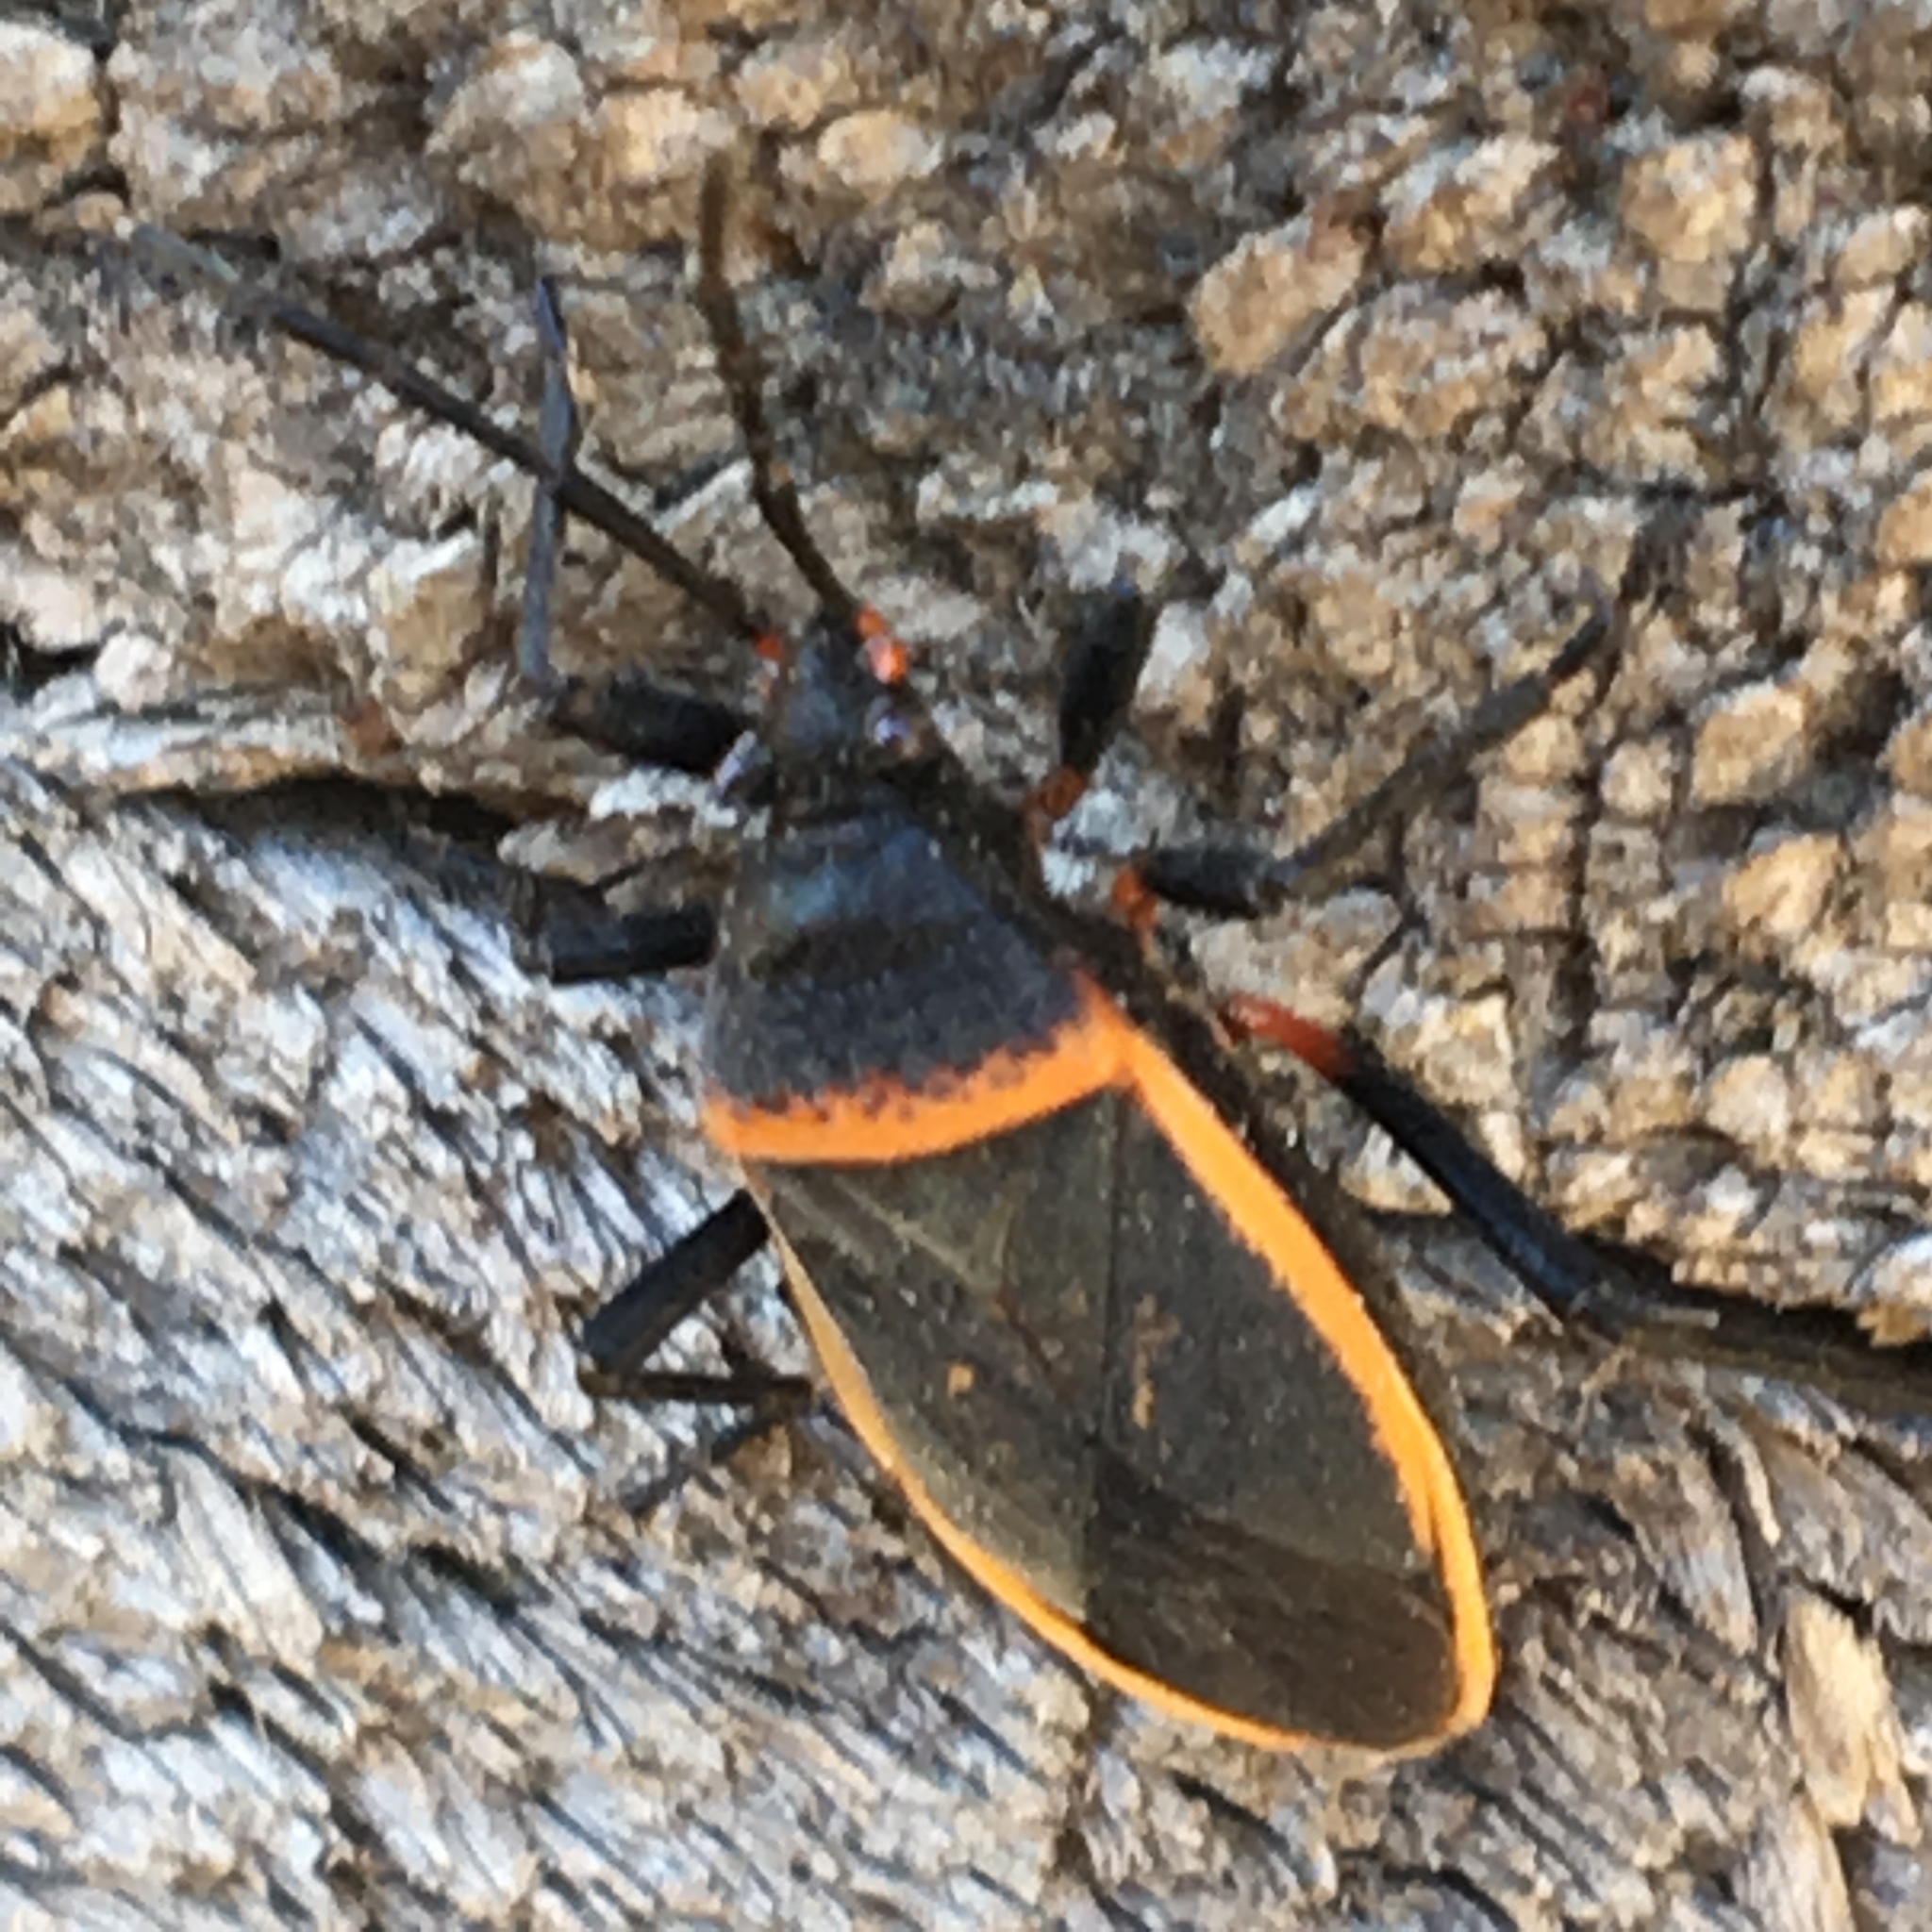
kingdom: Animalia
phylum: Arthropoda
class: Insecta
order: Hemiptera
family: Largidae
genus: Largus
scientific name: Largus californicus
